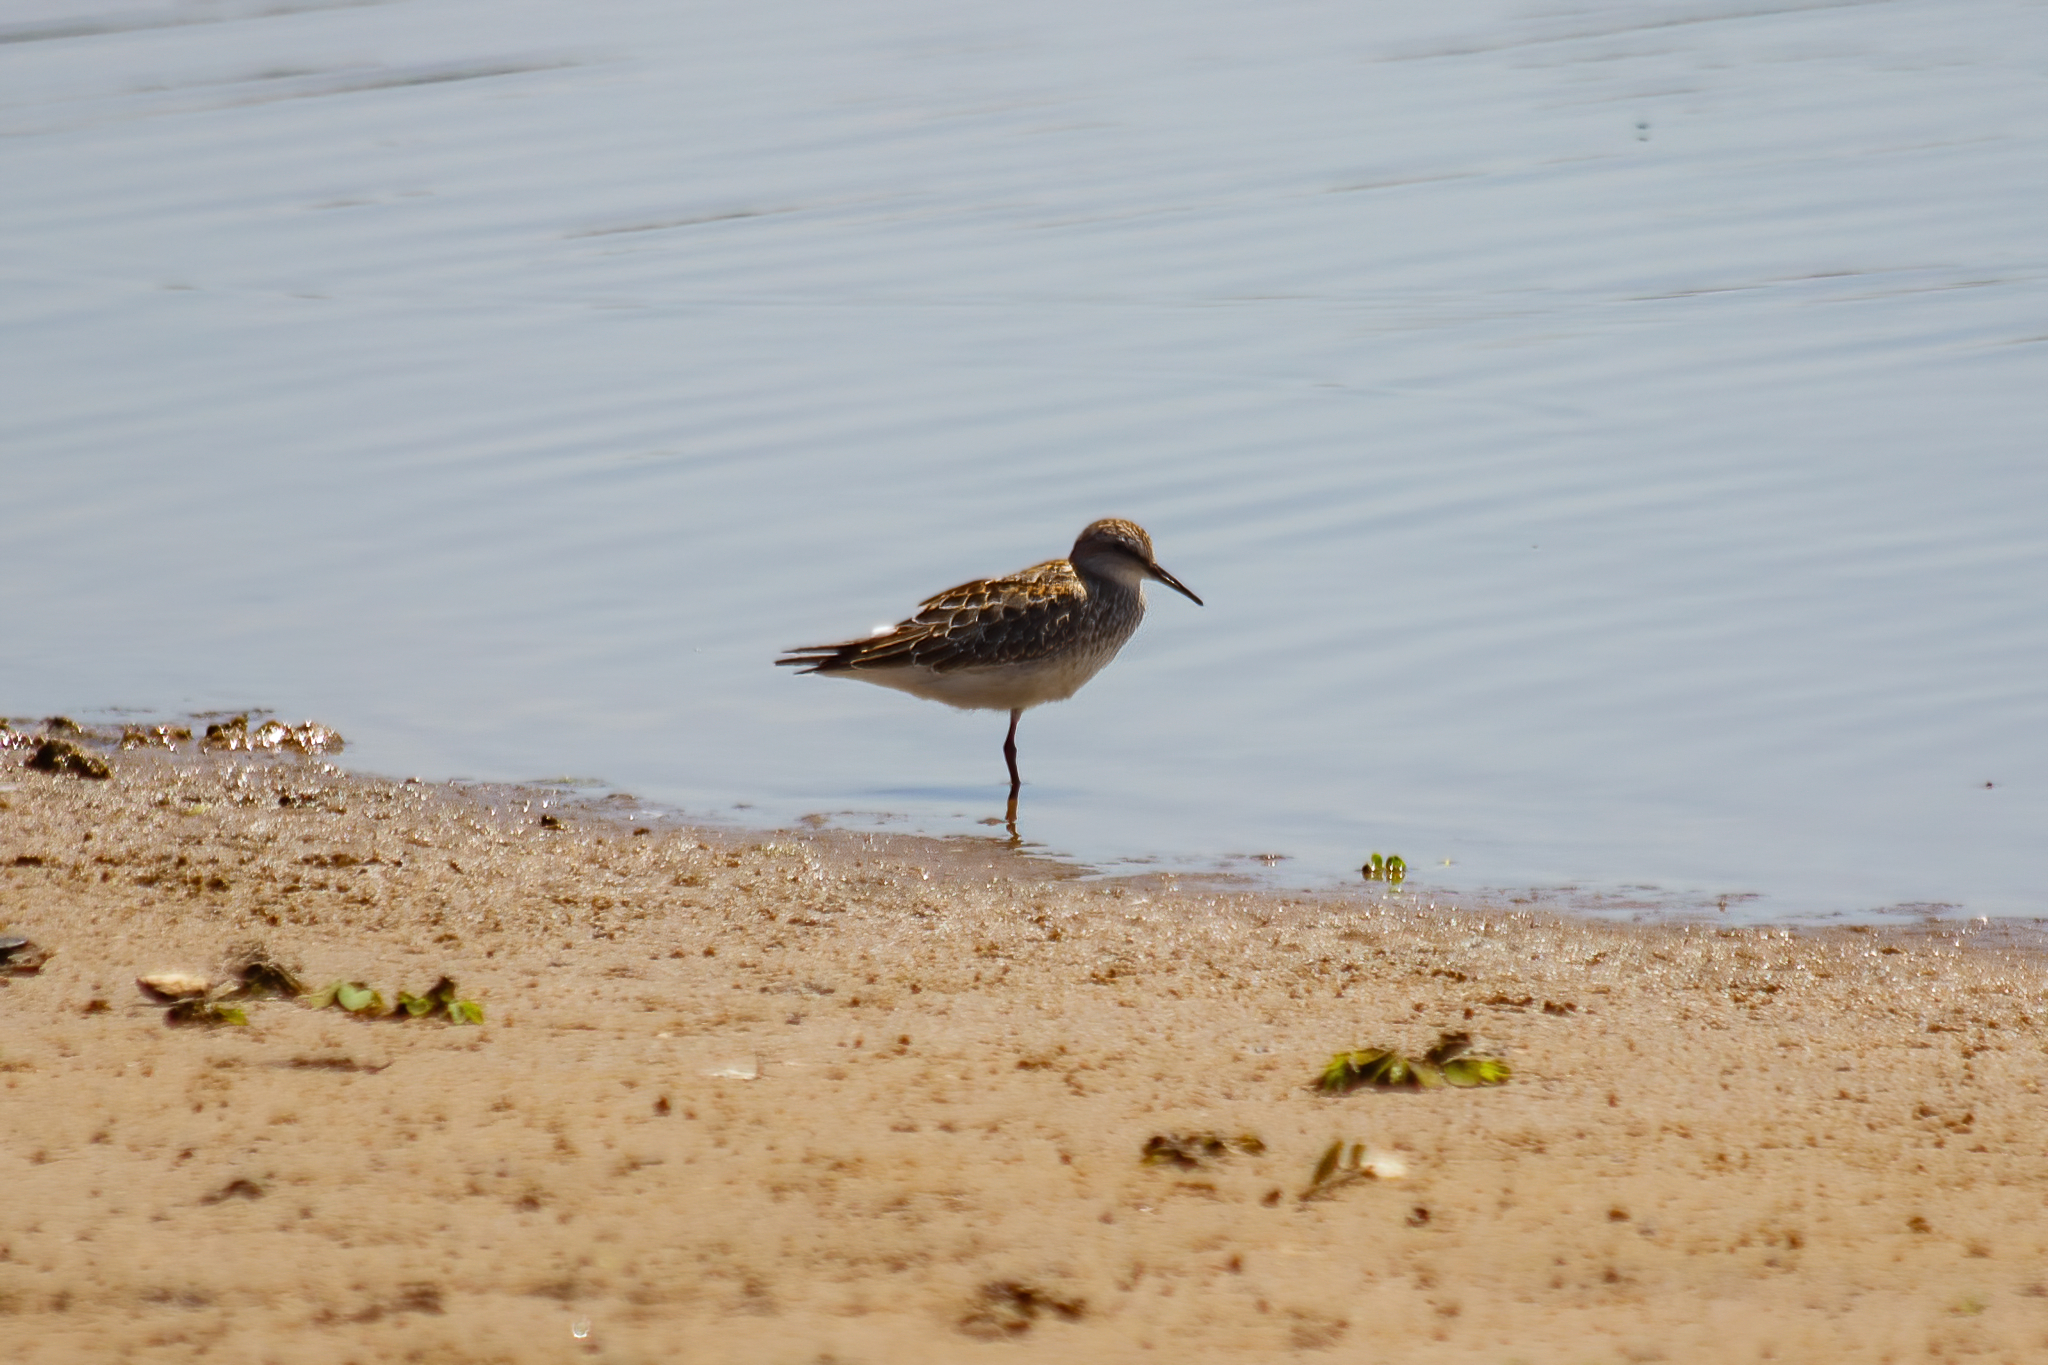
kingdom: Animalia
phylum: Chordata
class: Aves
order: Charadriiformes
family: Scolopacidae
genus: Calidris
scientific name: Calidris fuscicollis
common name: White-rumped sandpiper
